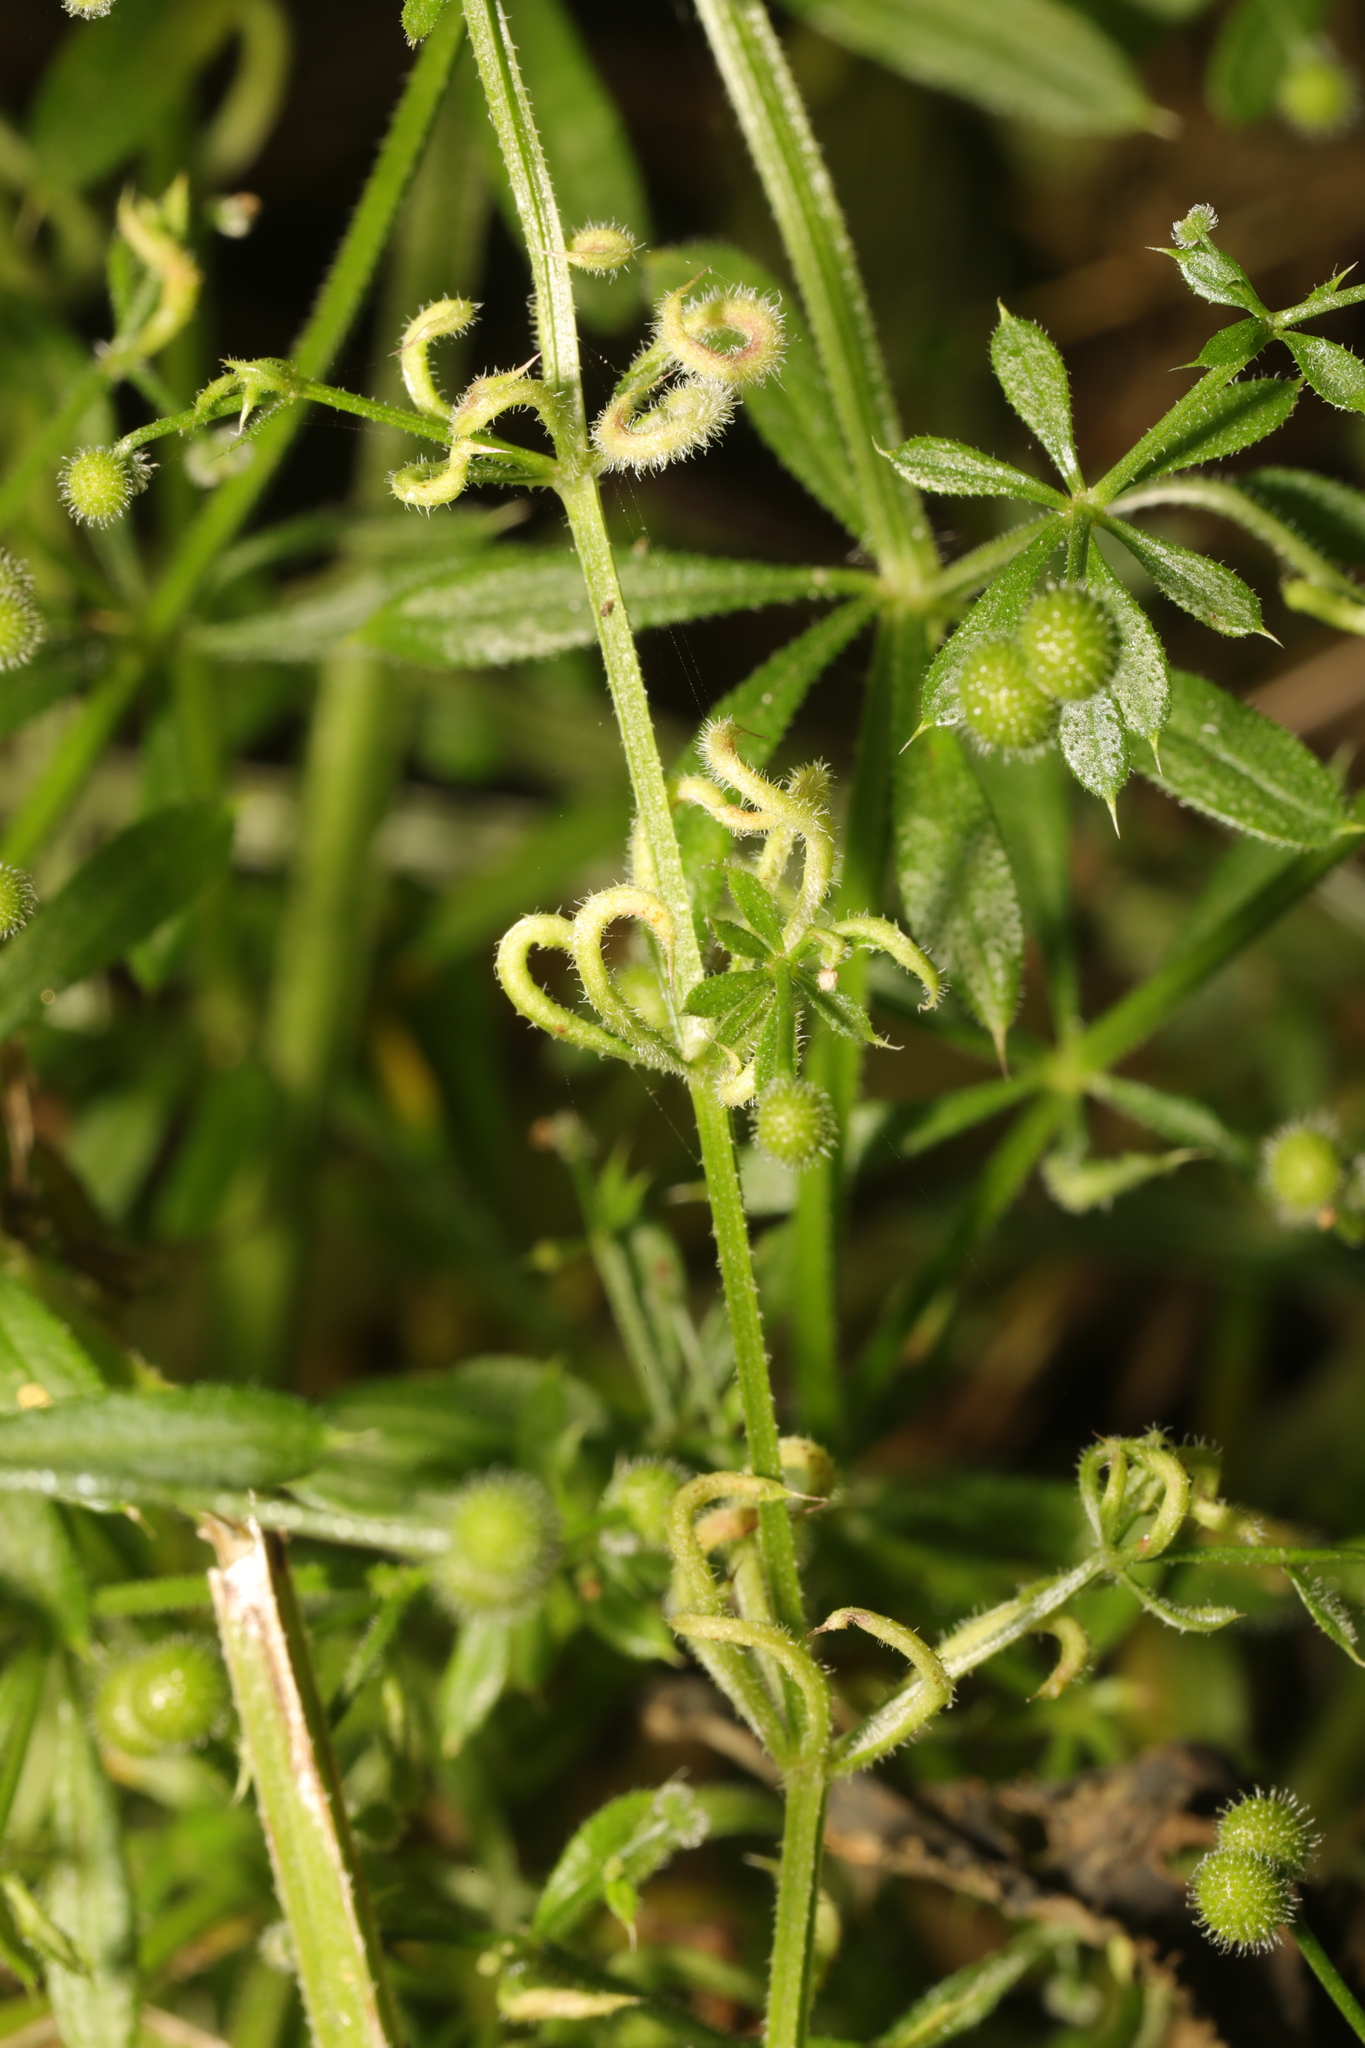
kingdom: Animalia
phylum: Arthropoda
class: Arachnida
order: Trombidiformes
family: Eriophyidae
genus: Cecidophyes
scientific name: Cecidophyes rouhollahi
